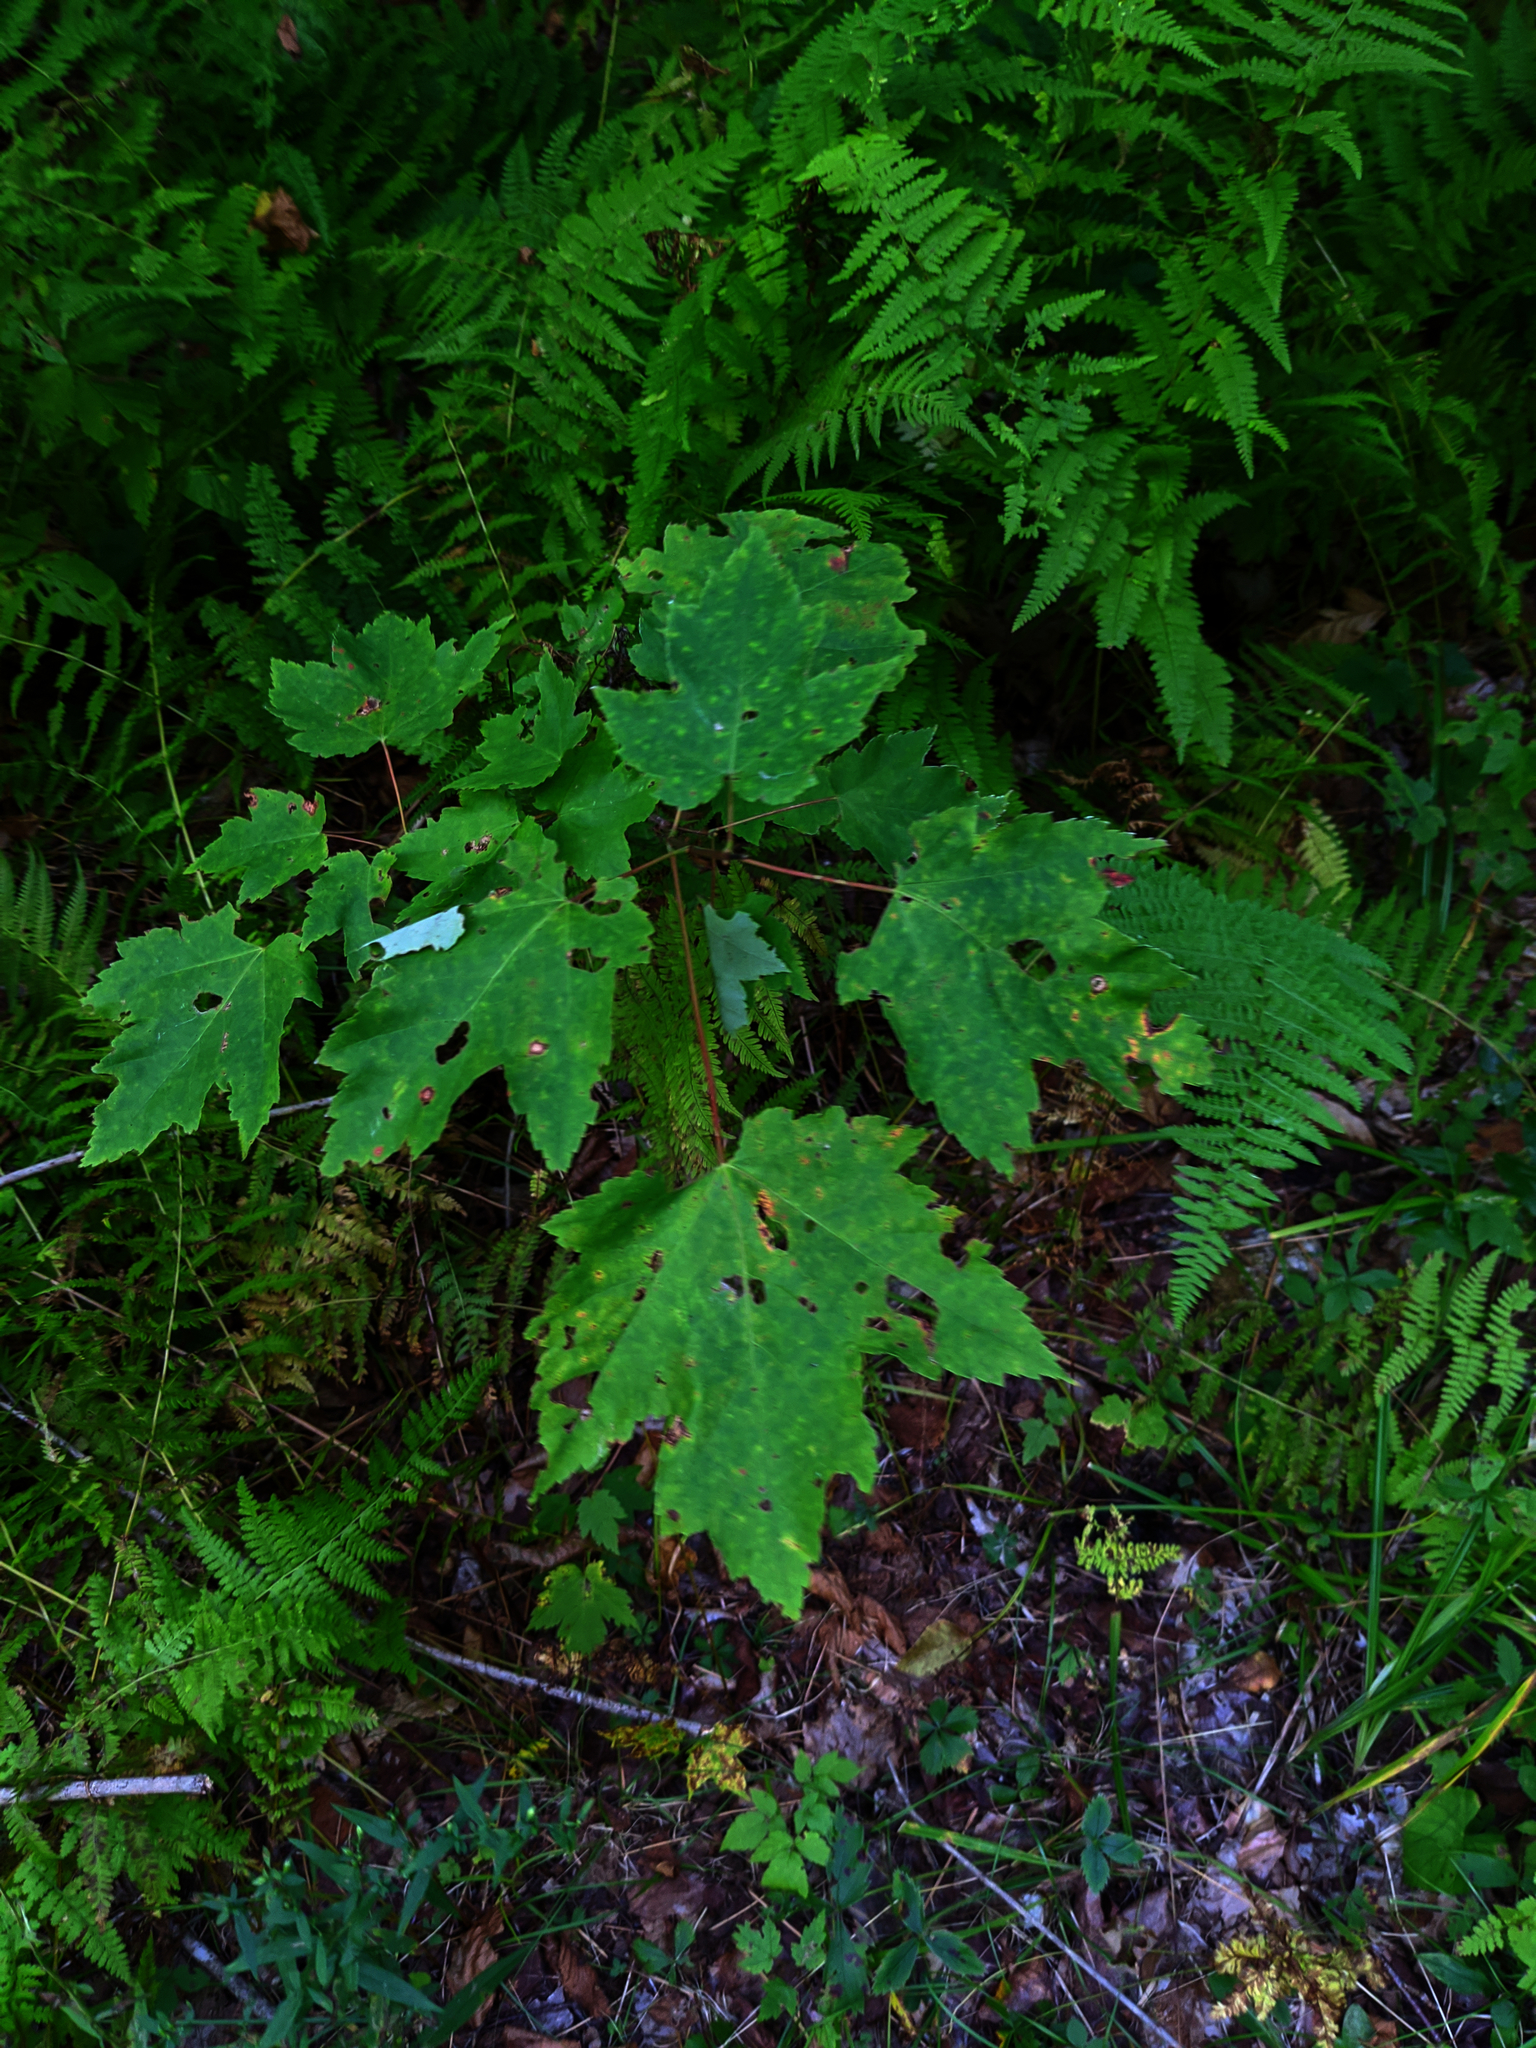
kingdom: Plantae
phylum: Tracheophyta
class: Magnoliopsida
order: Sapindales
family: Sapindaceae
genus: Acer
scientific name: Acer rubrum
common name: Red maple
